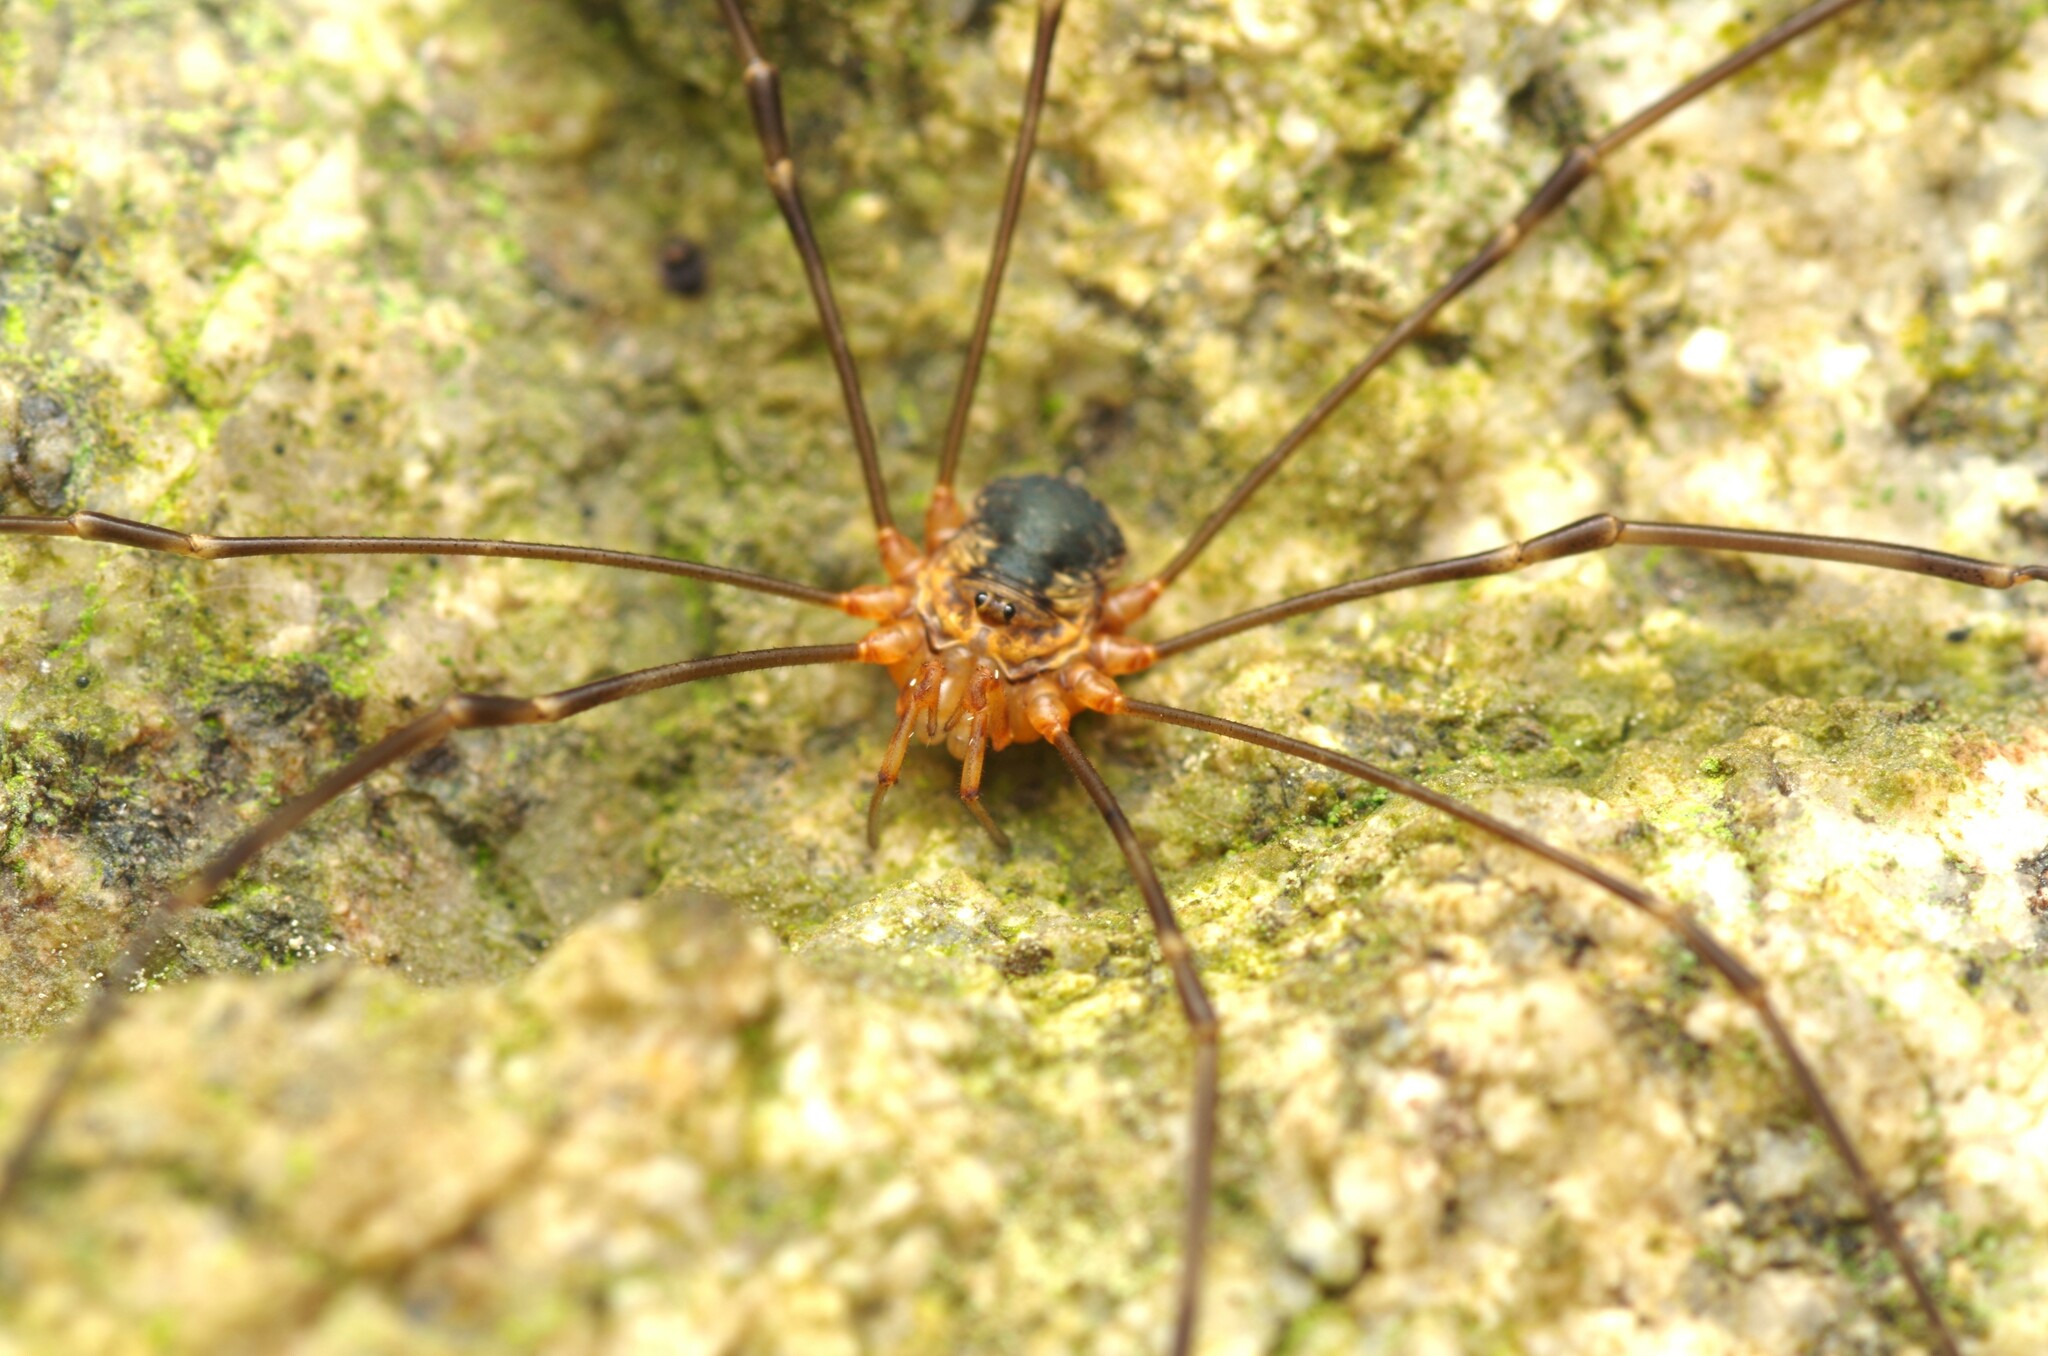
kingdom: Animalia
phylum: Arthropoda
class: Arachnida
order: Opiliones
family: Phalangiidae
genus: Dicranopalpus
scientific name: Dicranopalpus catariegensis
